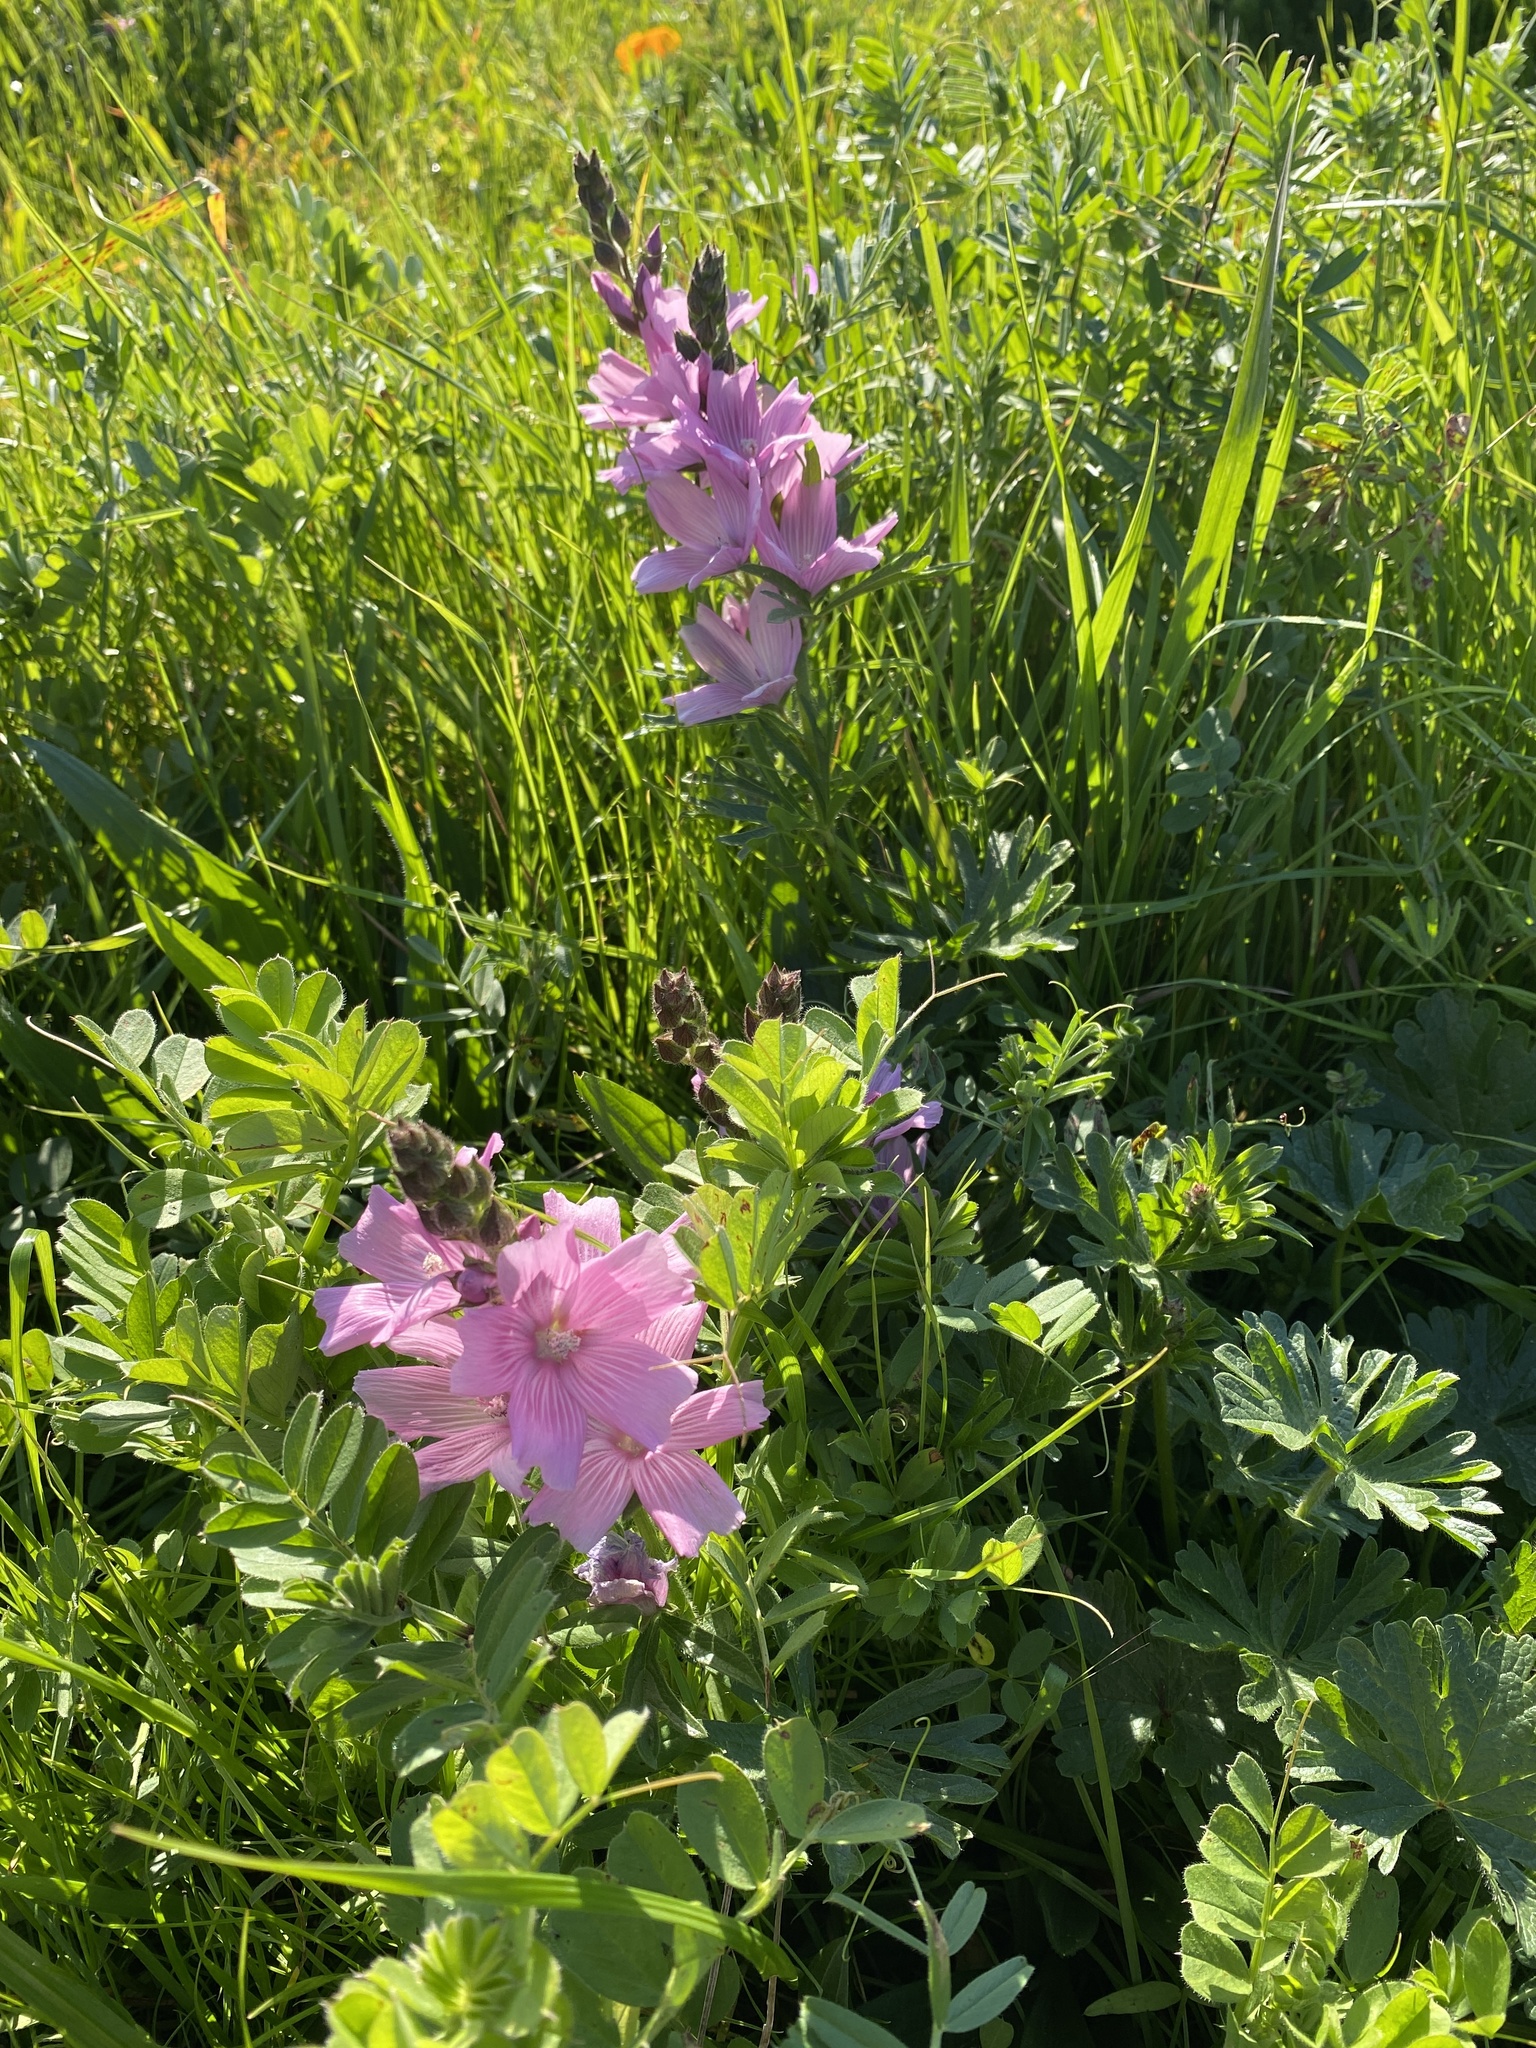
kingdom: Plantae
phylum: Tracheophyta
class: Magnoliopsida
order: Malvales
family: Malvaceae
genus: Sidalcea
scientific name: Sidalcea malviflora
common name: Greek mallow
